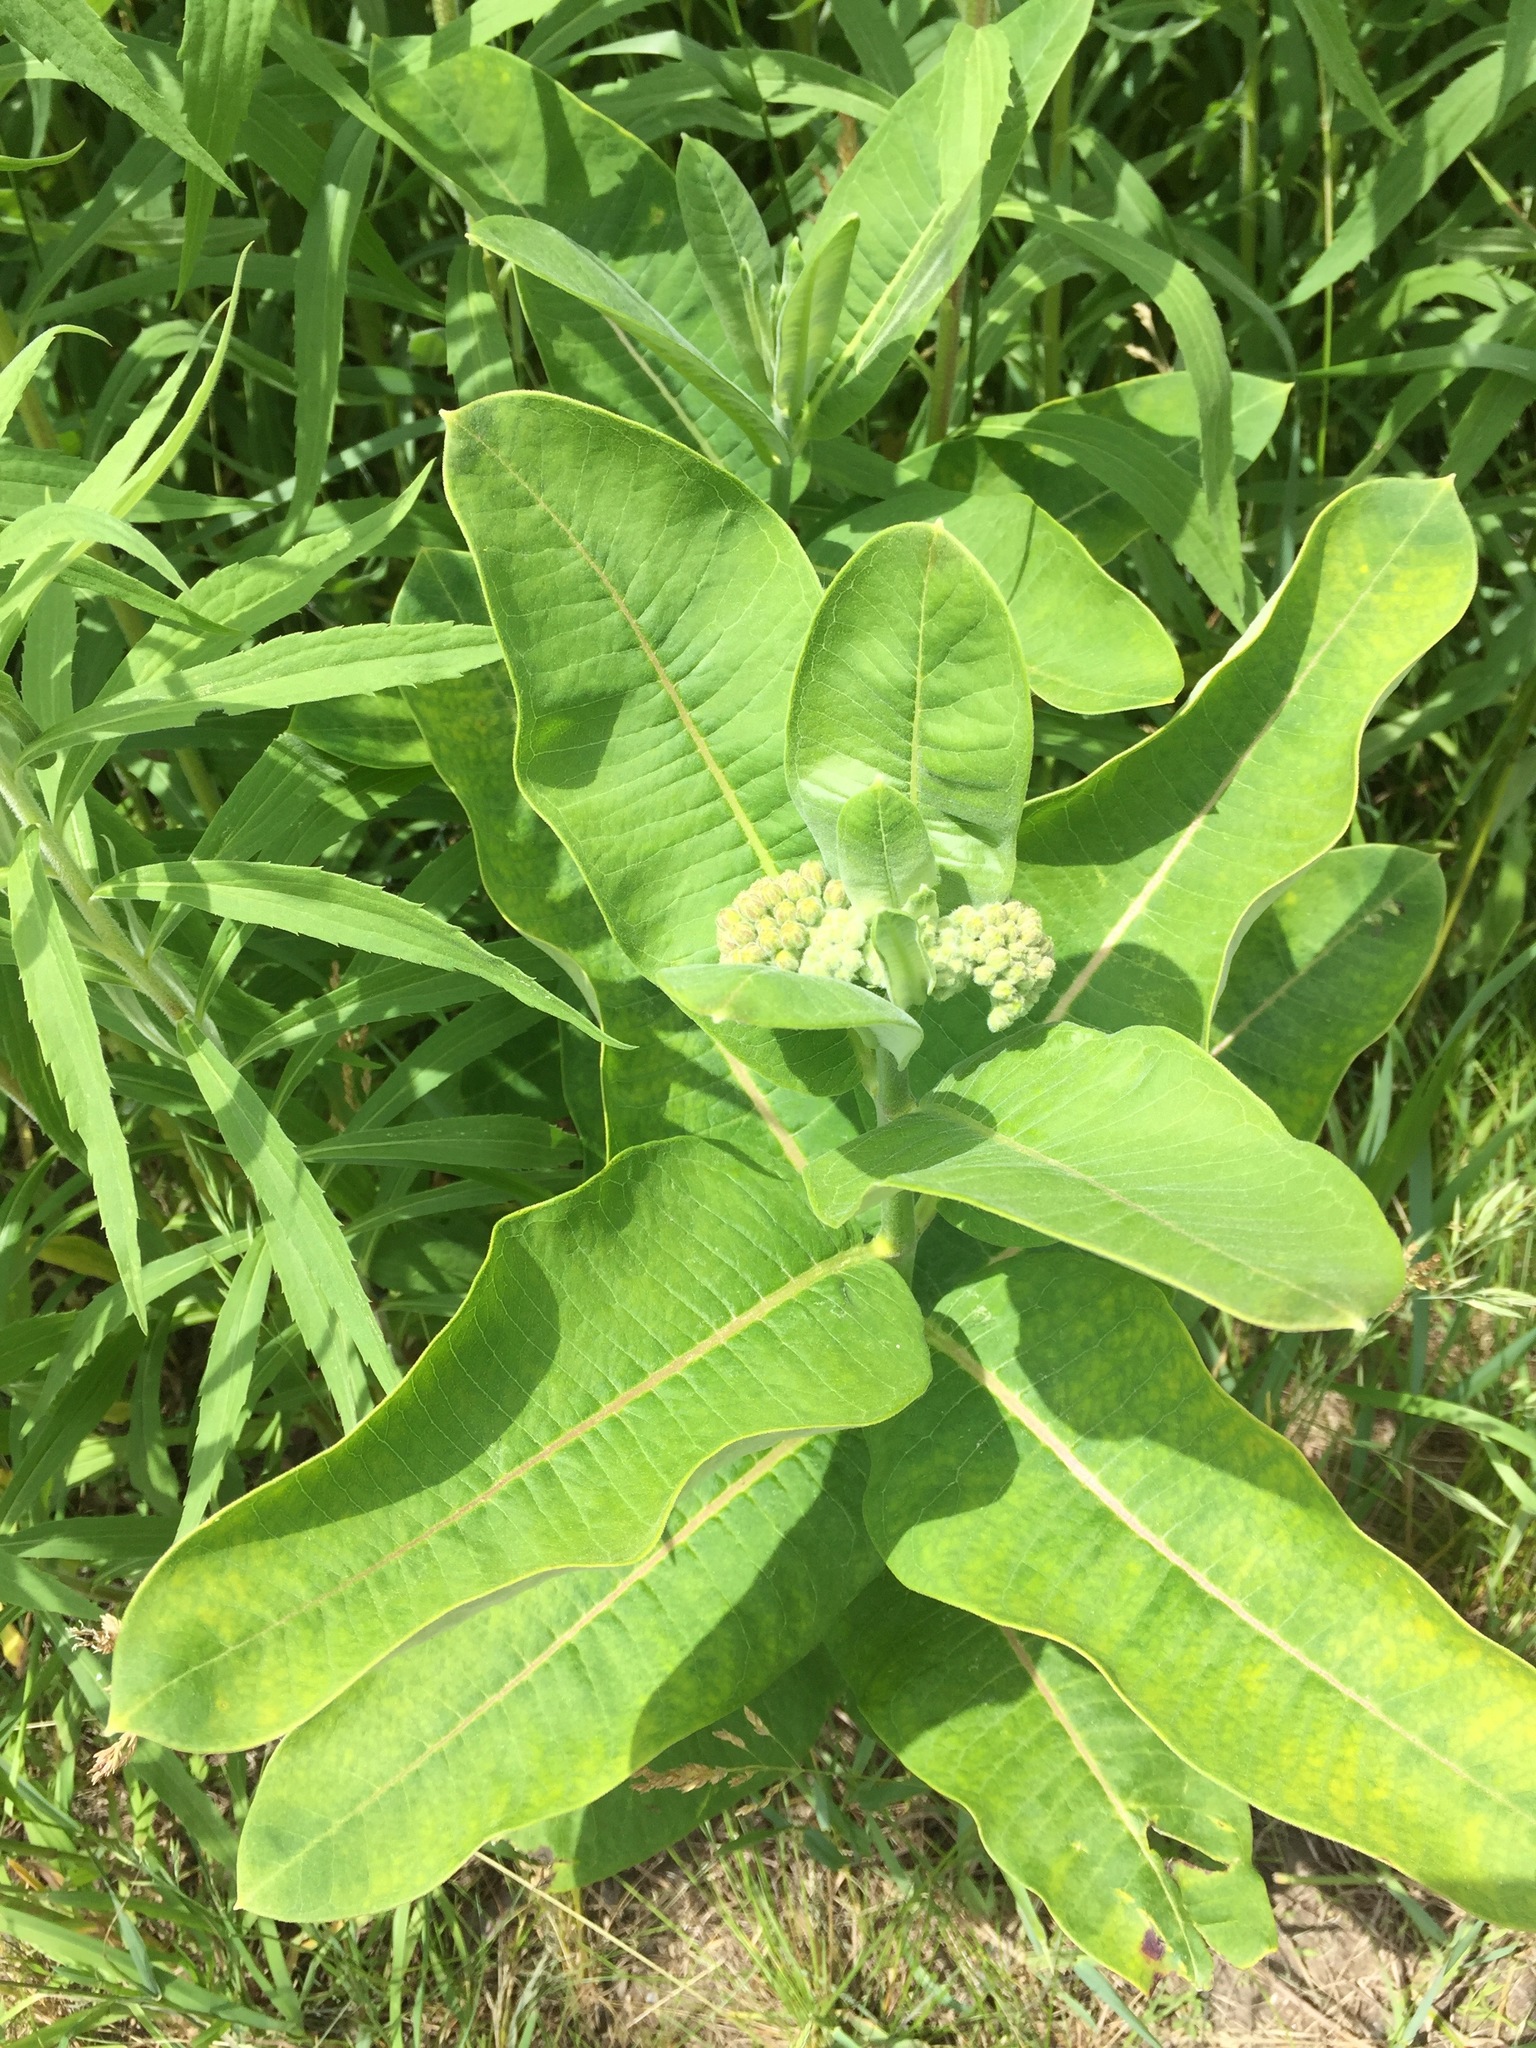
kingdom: Plantae
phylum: Tracheophyta
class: Magnoliopsida
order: Gentianales
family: Apocynaceae
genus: Asclepias
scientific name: Asclepias syriaca
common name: Common milkweed
